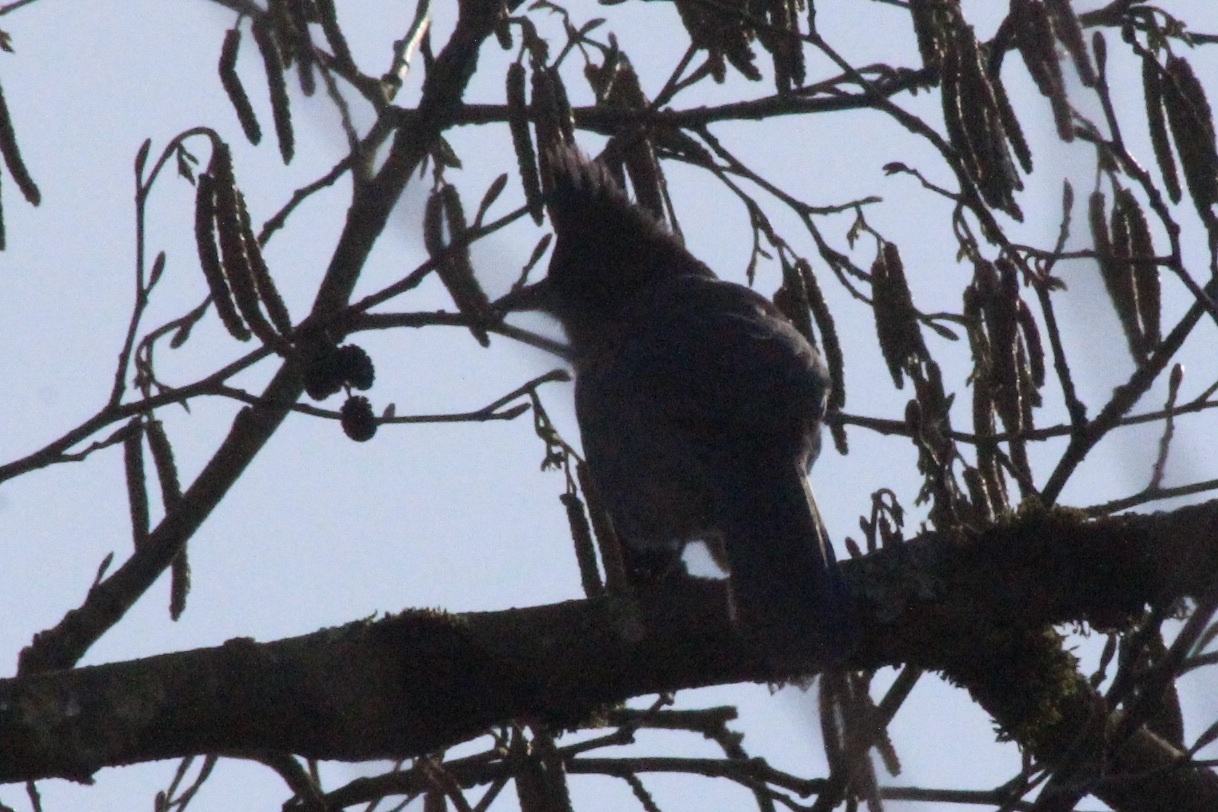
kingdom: Animalia
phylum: Chordata
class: Aves
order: Passeriformes
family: Corvidae
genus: Cyanocitta
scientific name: Cyanocitta stelleri
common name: Steller's jay
